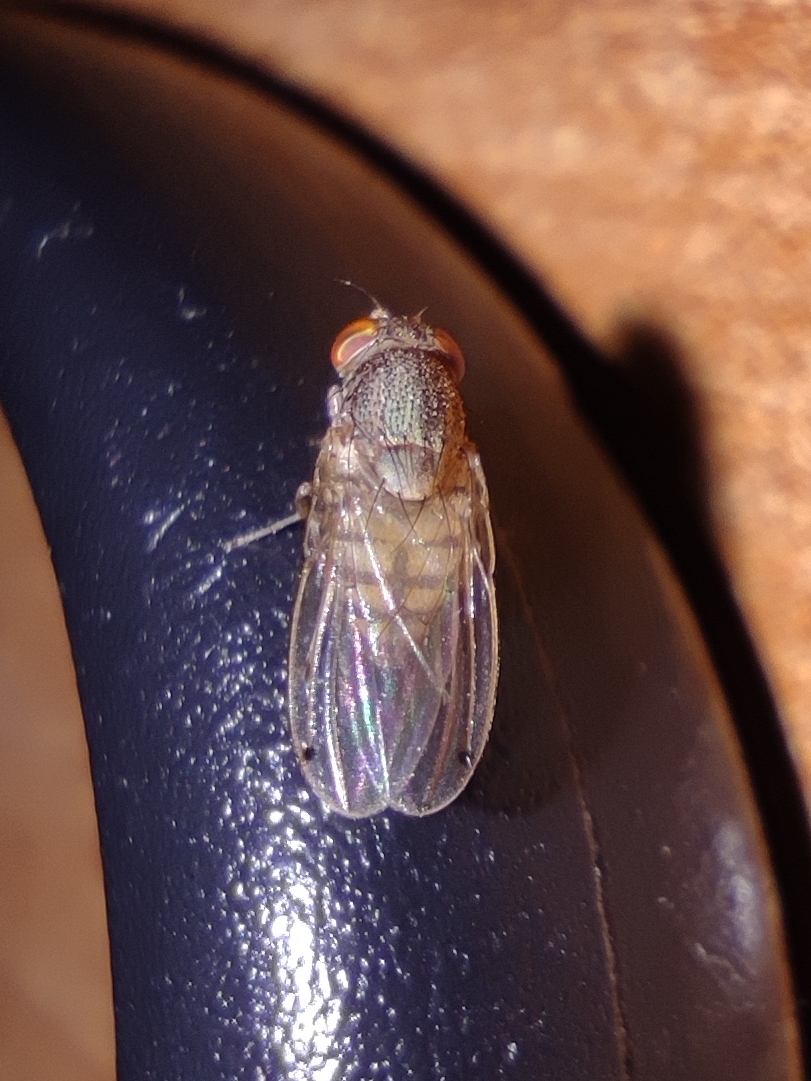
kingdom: Animalia
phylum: Arthropoda
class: Insecta
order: Diptera
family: Drosophilidae
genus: Gitona
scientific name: Gitona distigma
